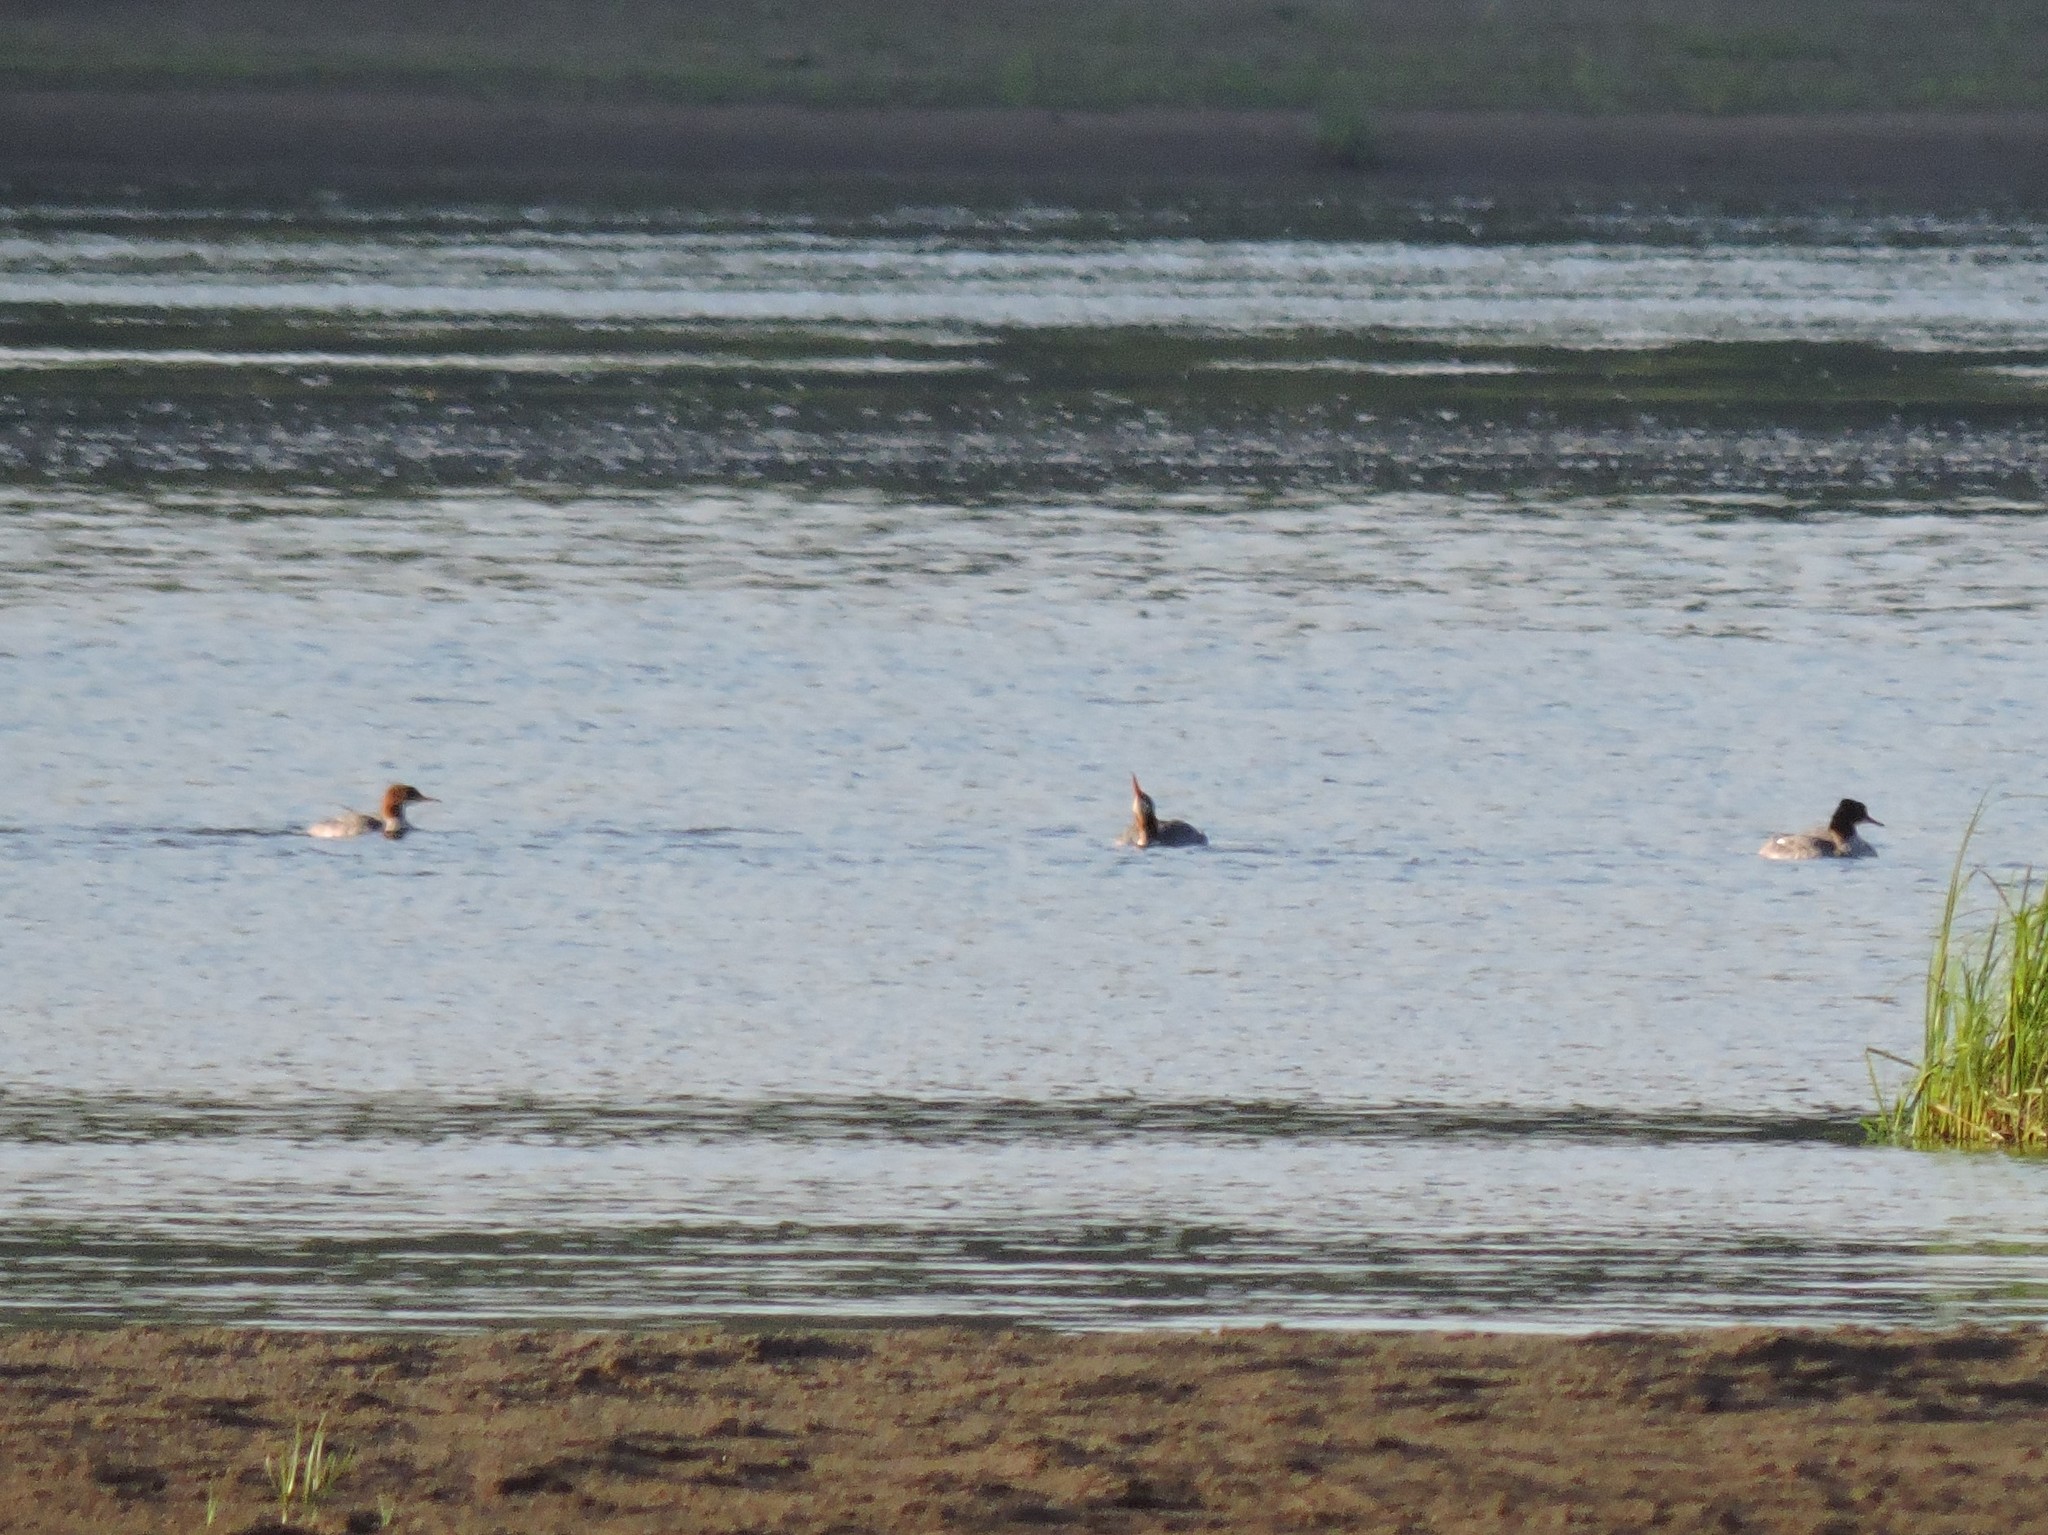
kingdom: Animalia
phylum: Chordata
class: Aves
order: Anseriformes
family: Anatidae
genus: Mergus
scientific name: Mergus merganser
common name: Common merganser
